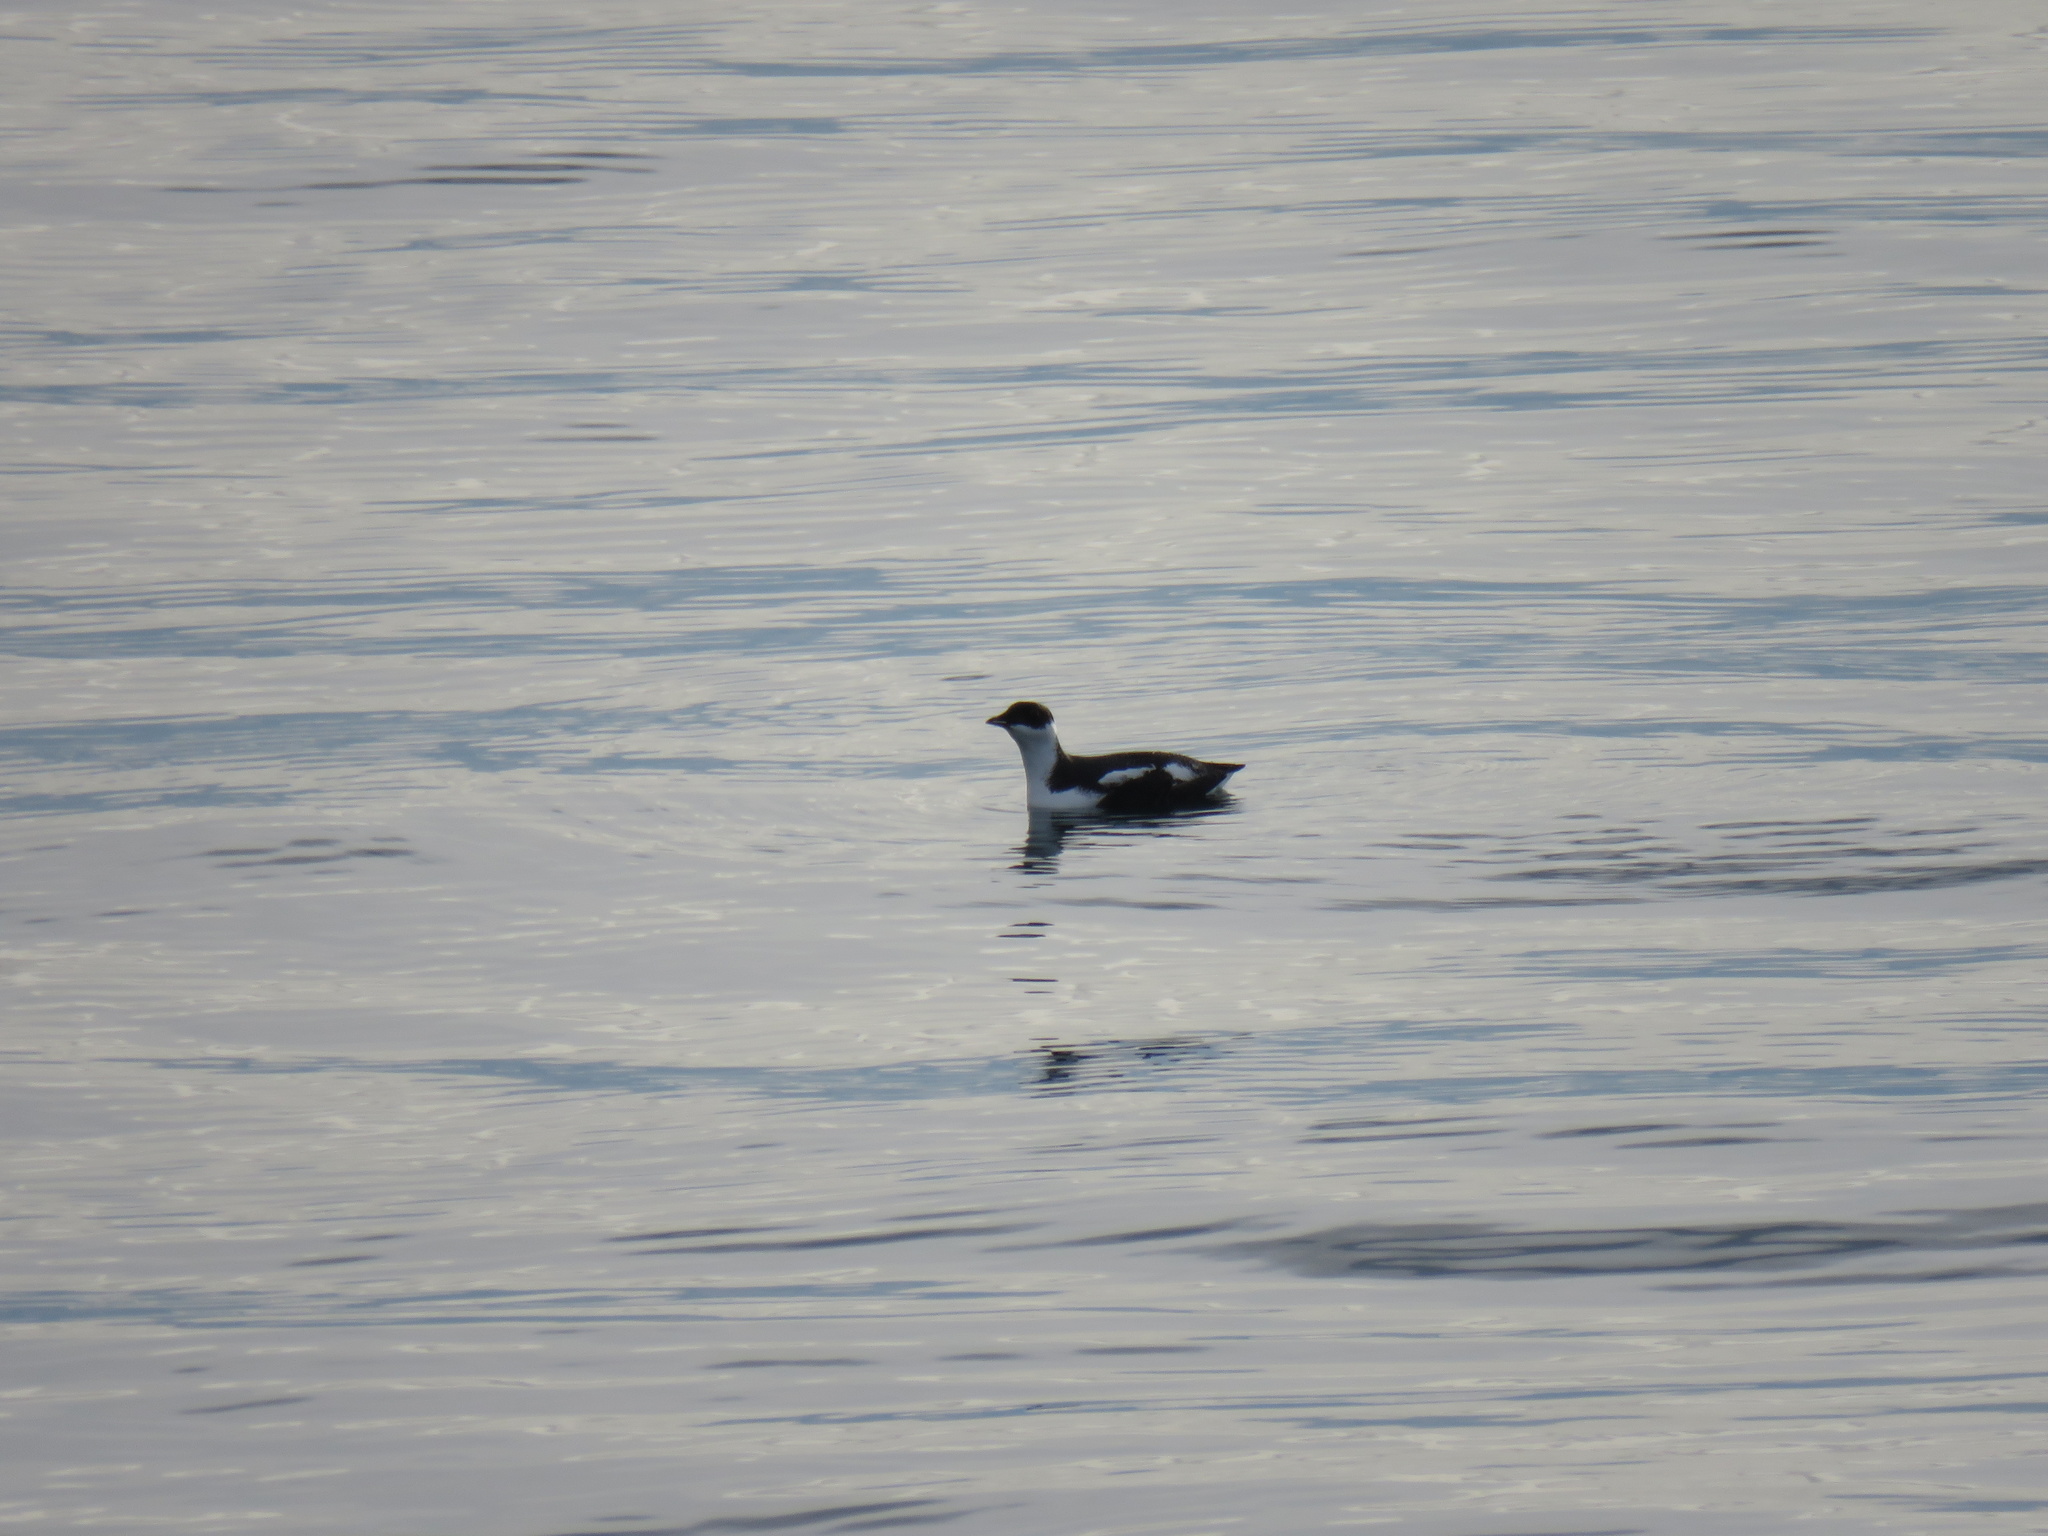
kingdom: Animalia
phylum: Chordata
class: Aves
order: Charadriiformes
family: Alcidae
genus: Brachyramphus
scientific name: Brachyramphus marmoratus
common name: Marbled murrelet
